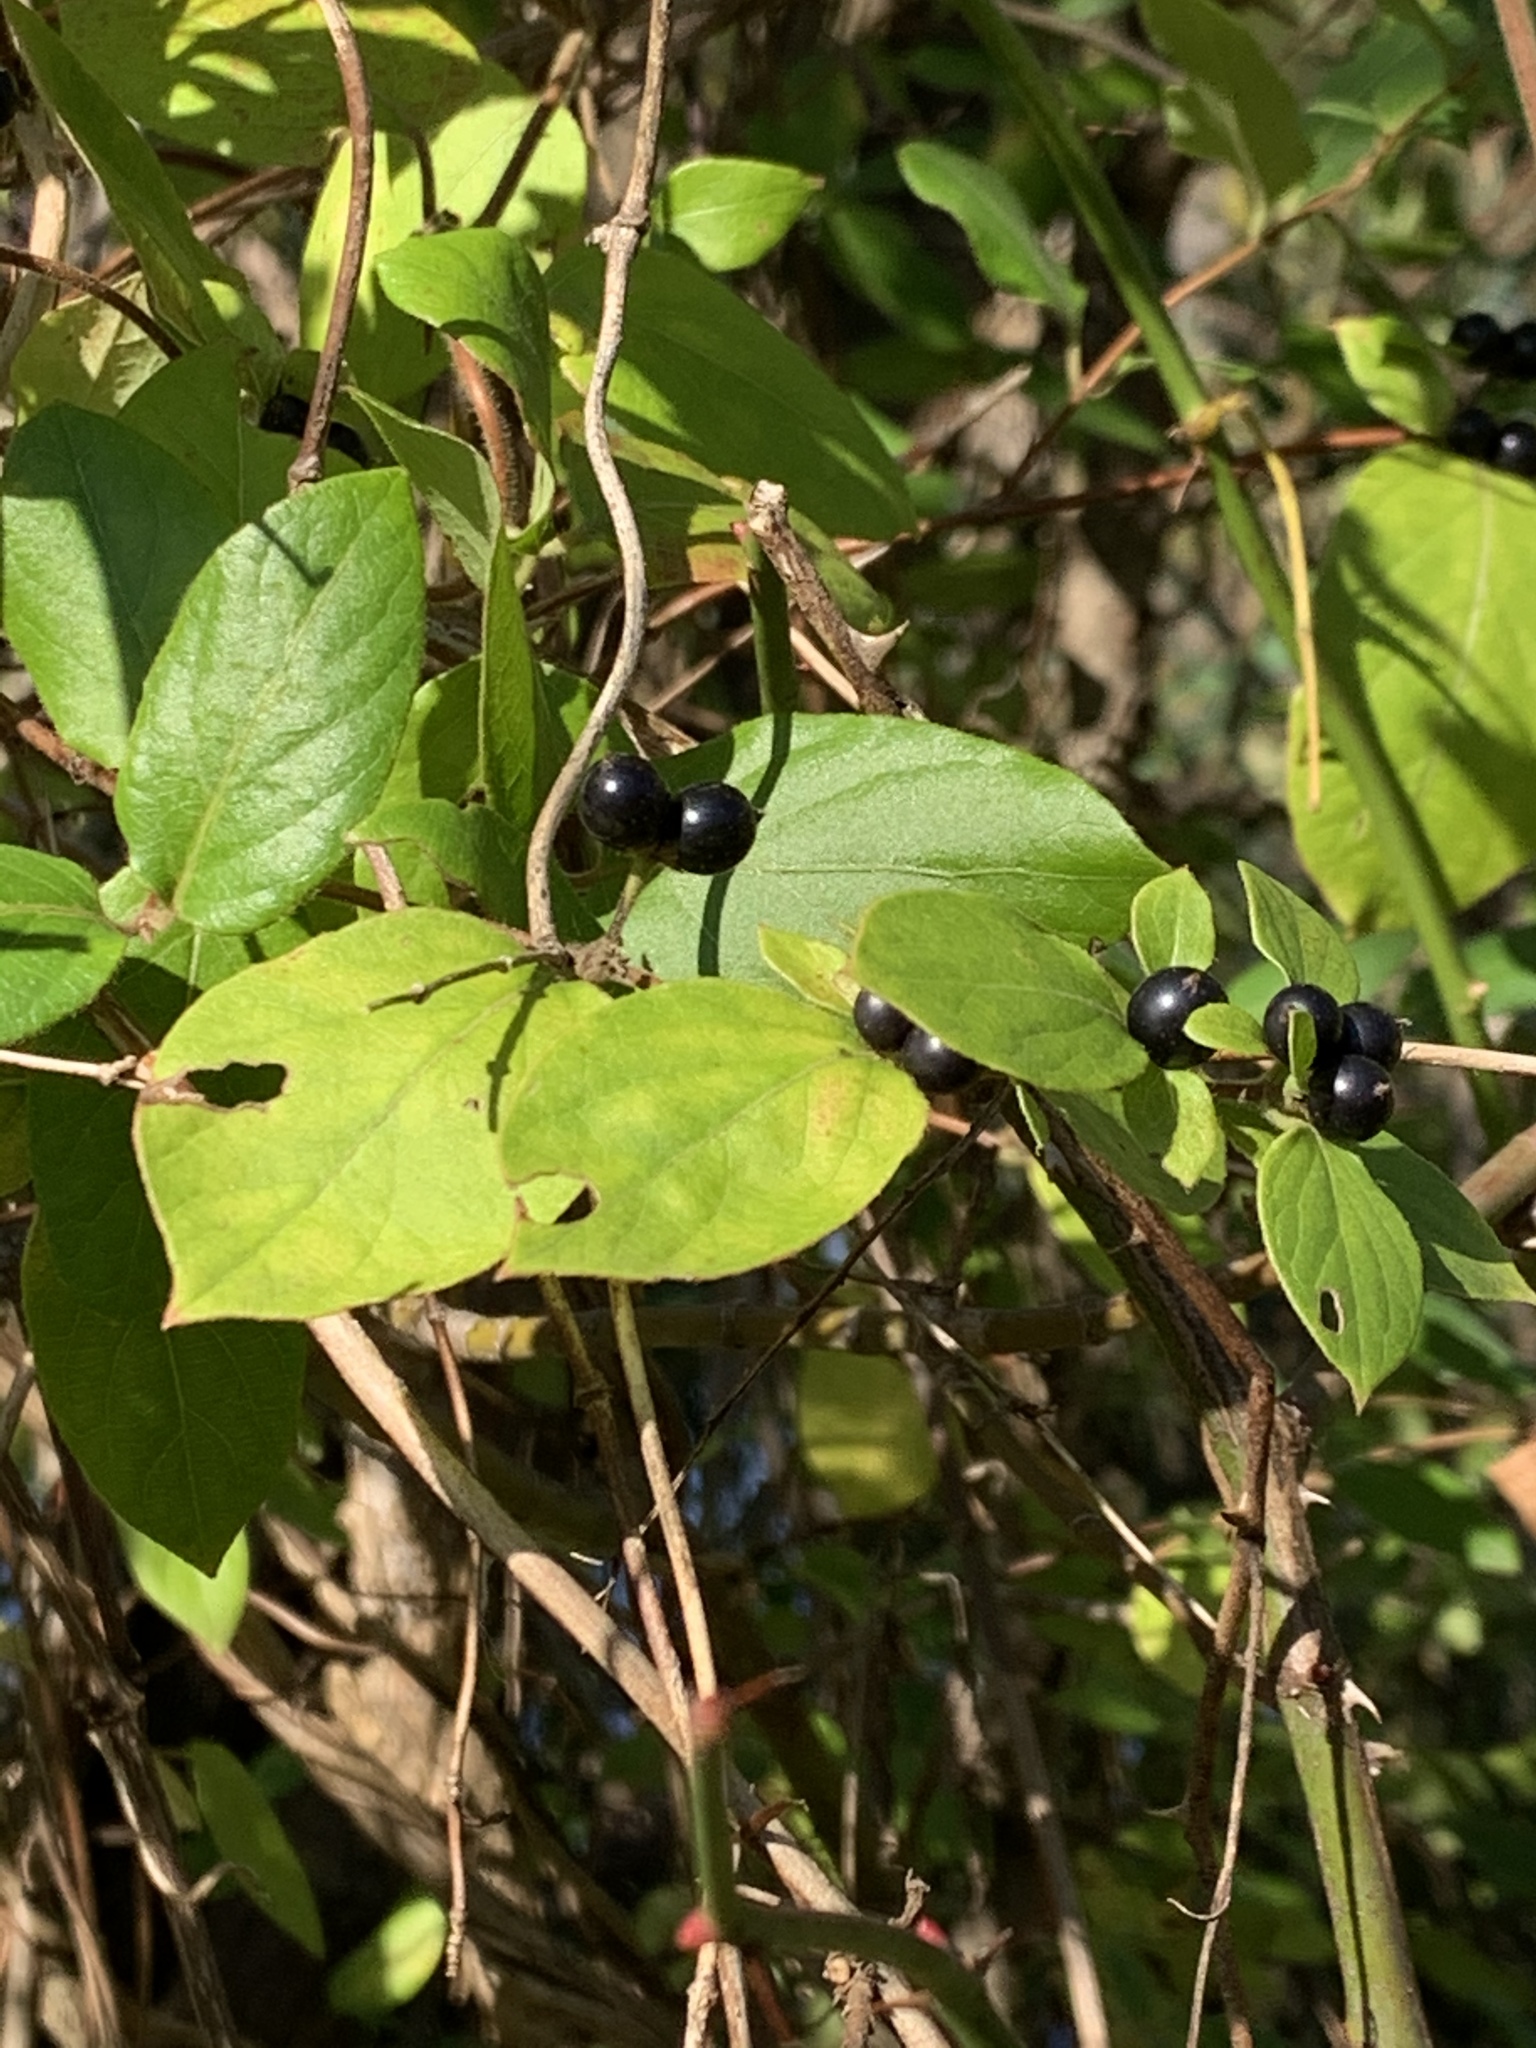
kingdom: Plantae
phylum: Tracheophyta
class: Magnoliopsida
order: Dipsacales
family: Caprifoliaceae
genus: Lonicera
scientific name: Lonicera japonica
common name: Japanese honeysuckle
